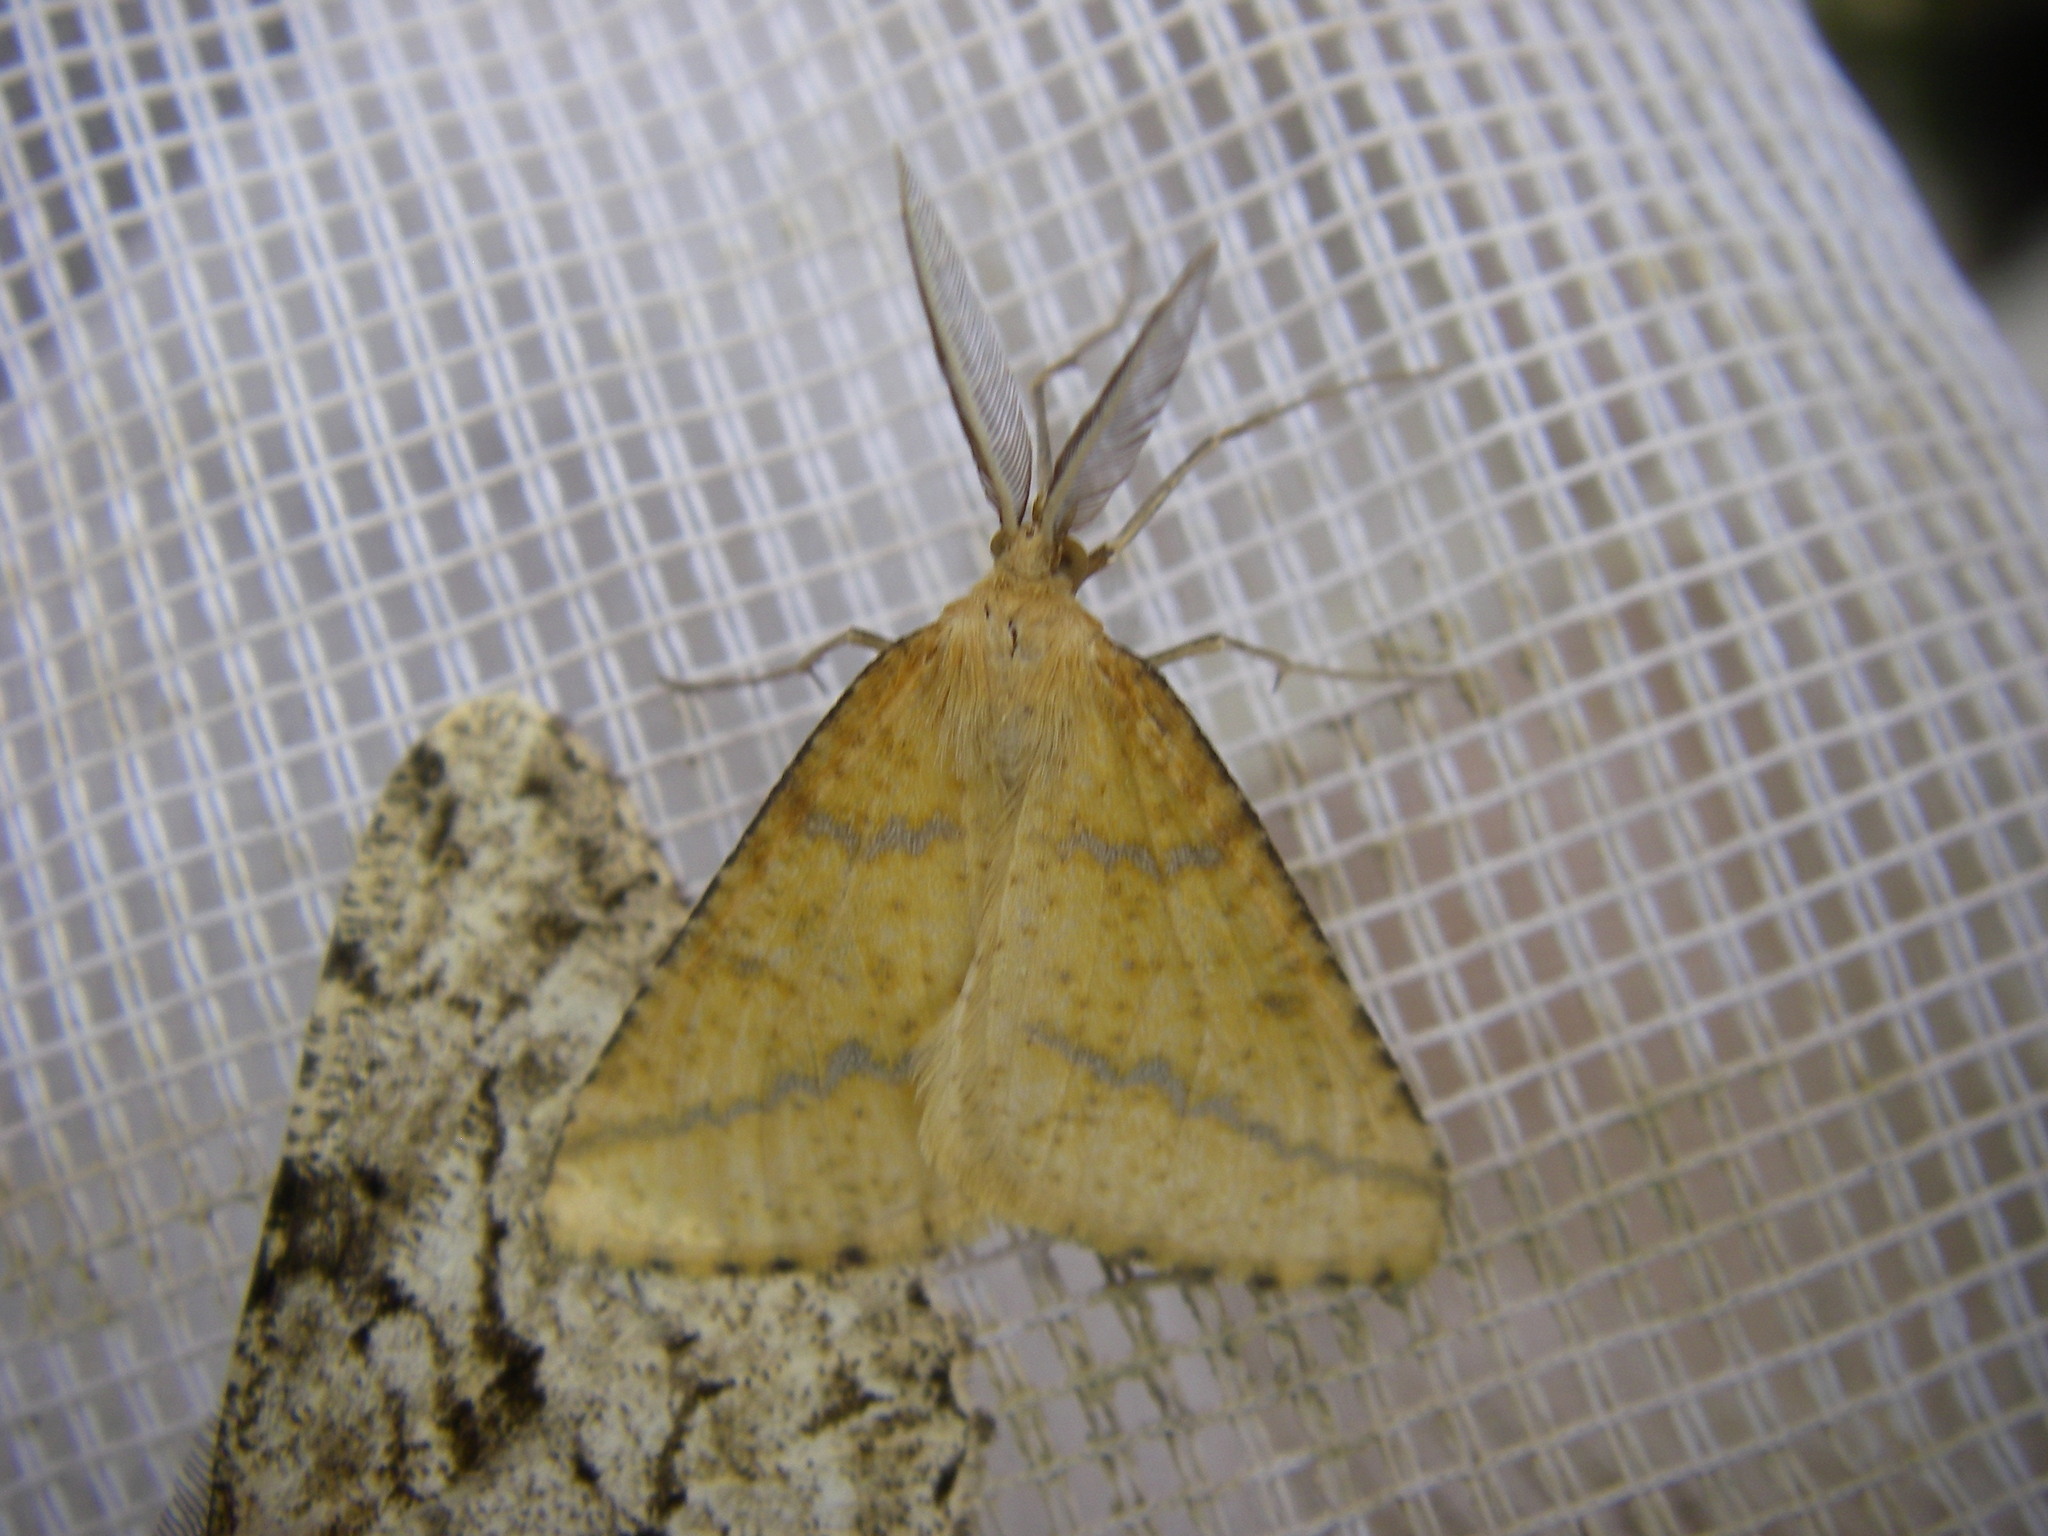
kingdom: Animalia
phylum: Arthropoda
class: Insecta
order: Lepidoptera
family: Geometridae
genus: Aspitates
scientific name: Aspitates ochrearia
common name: Yellow belle
